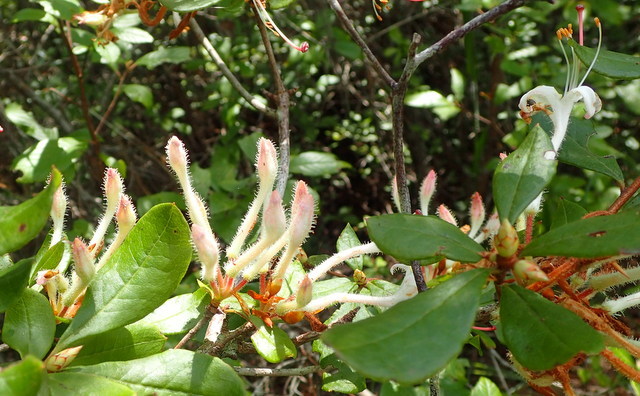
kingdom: Plantae
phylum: Tracheophyta
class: Magnoliopsida
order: Ericales
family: Ericaceae
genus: Rhododendron
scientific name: Rhododendron serrulatum
